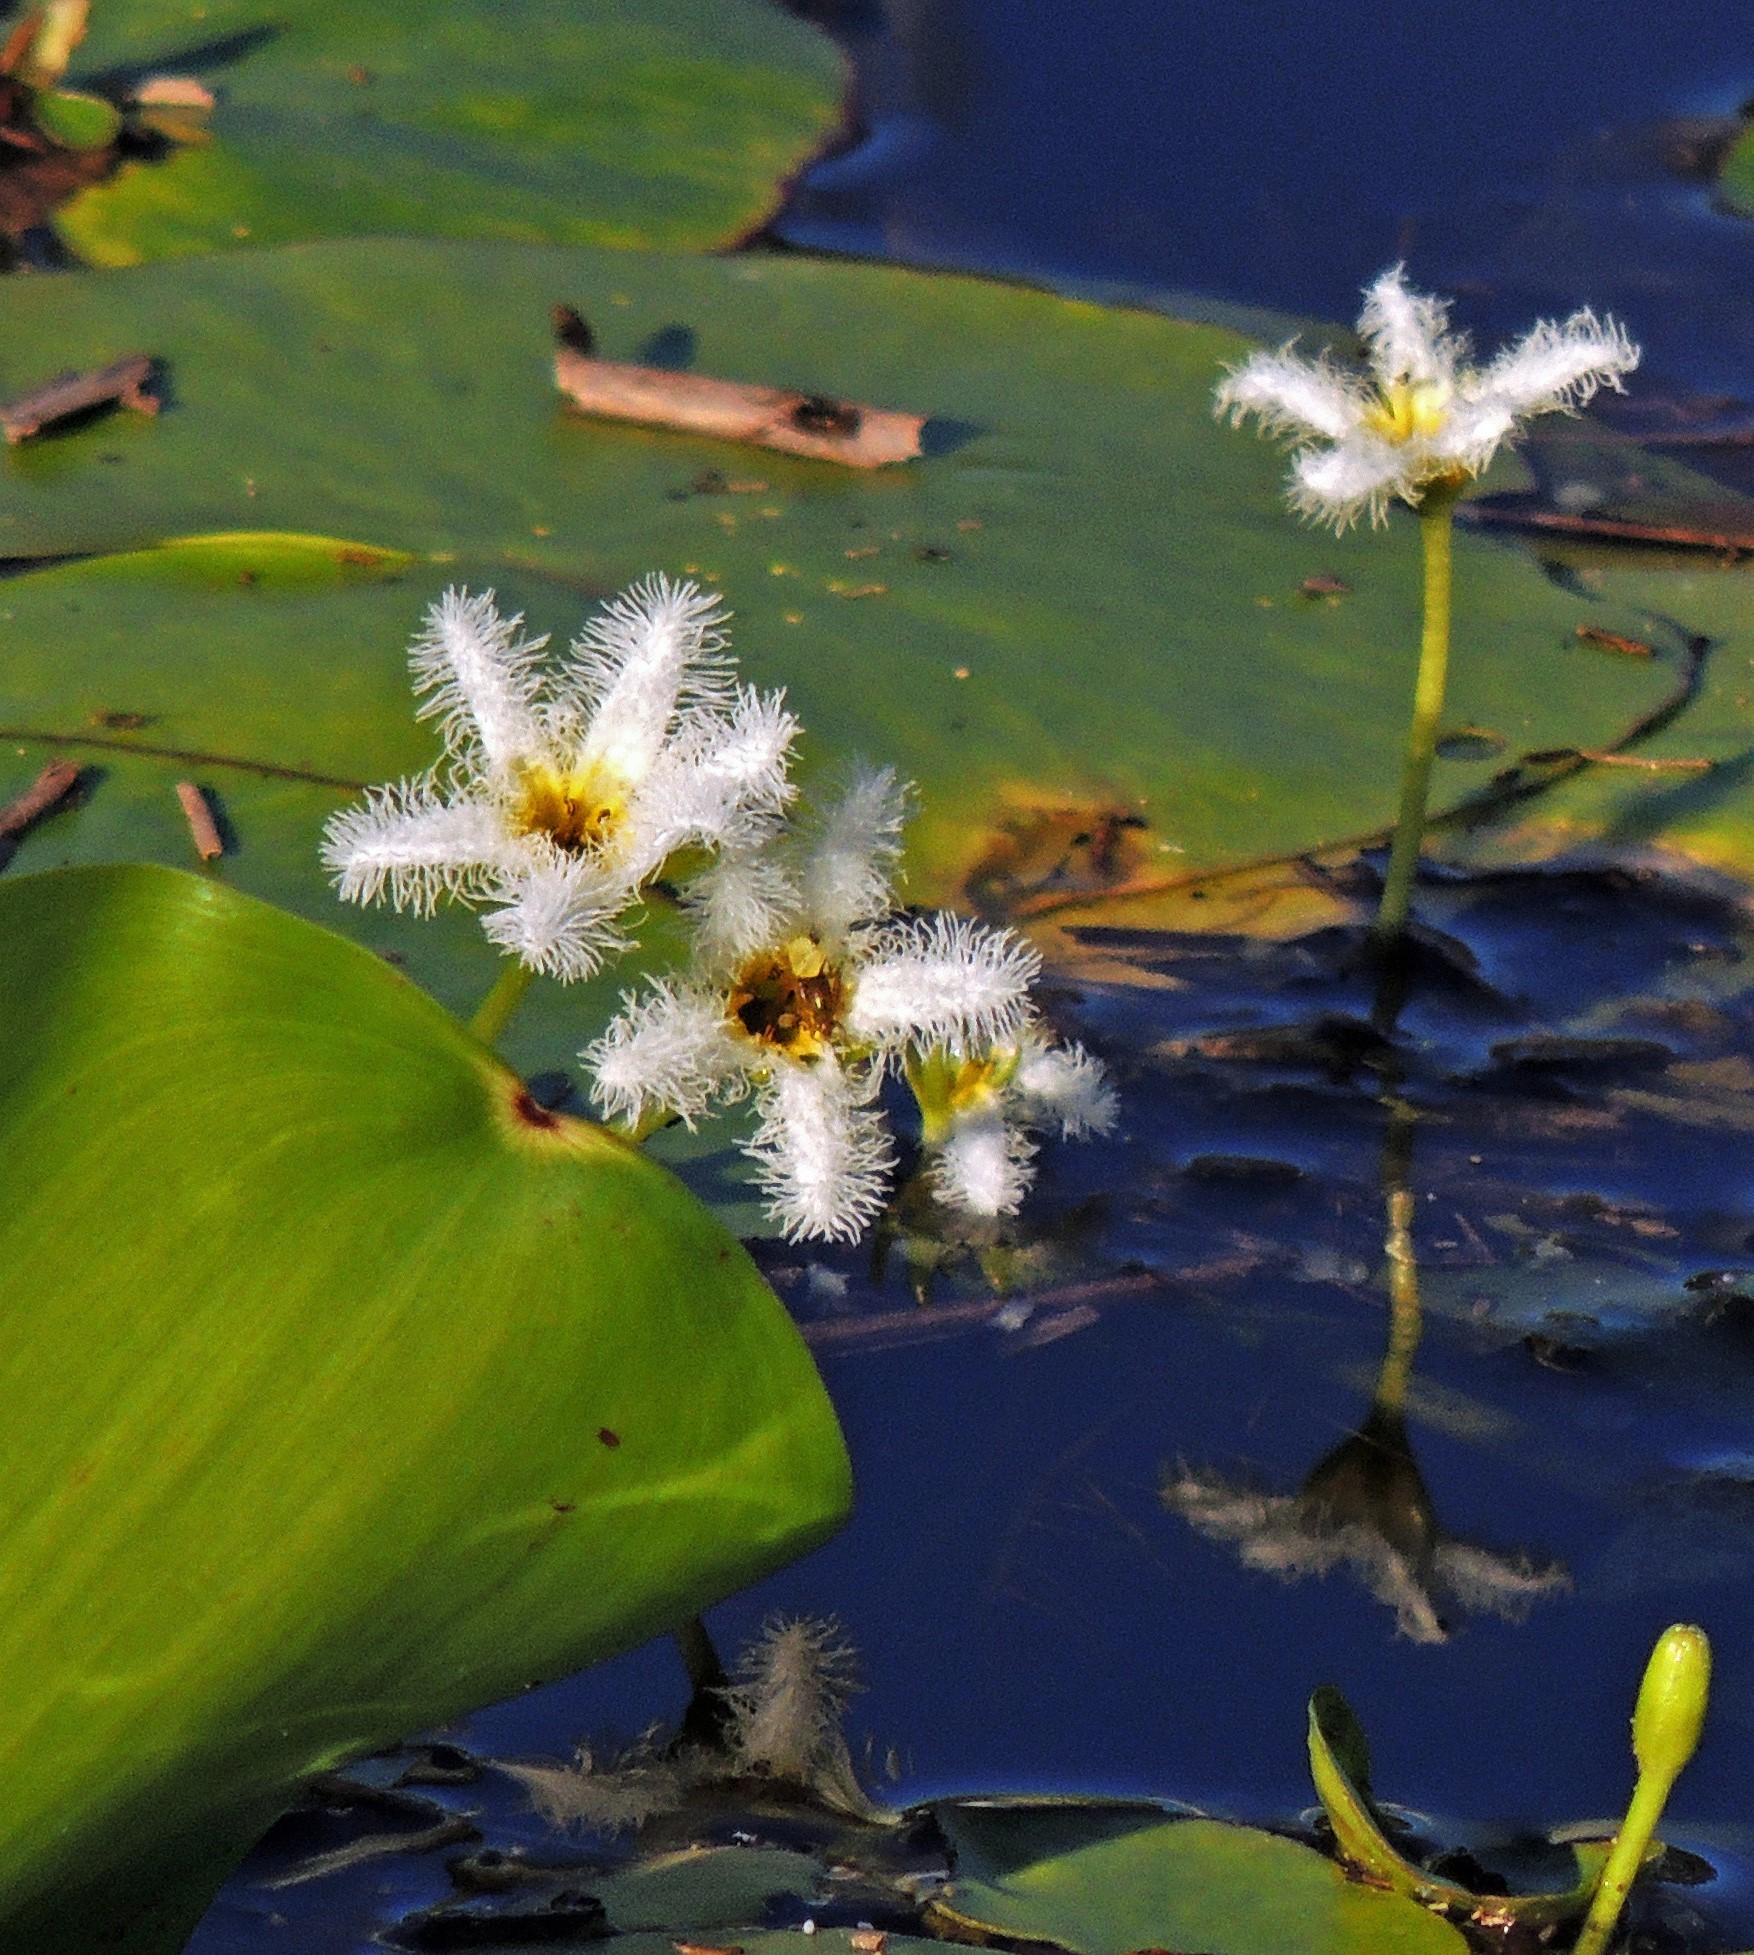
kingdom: Plantae
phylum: Tracheophyta
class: Magnoliopsida
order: Asterales
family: Menyanthaceae
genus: Nymphoides
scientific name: Nymphoides humboldtiana
